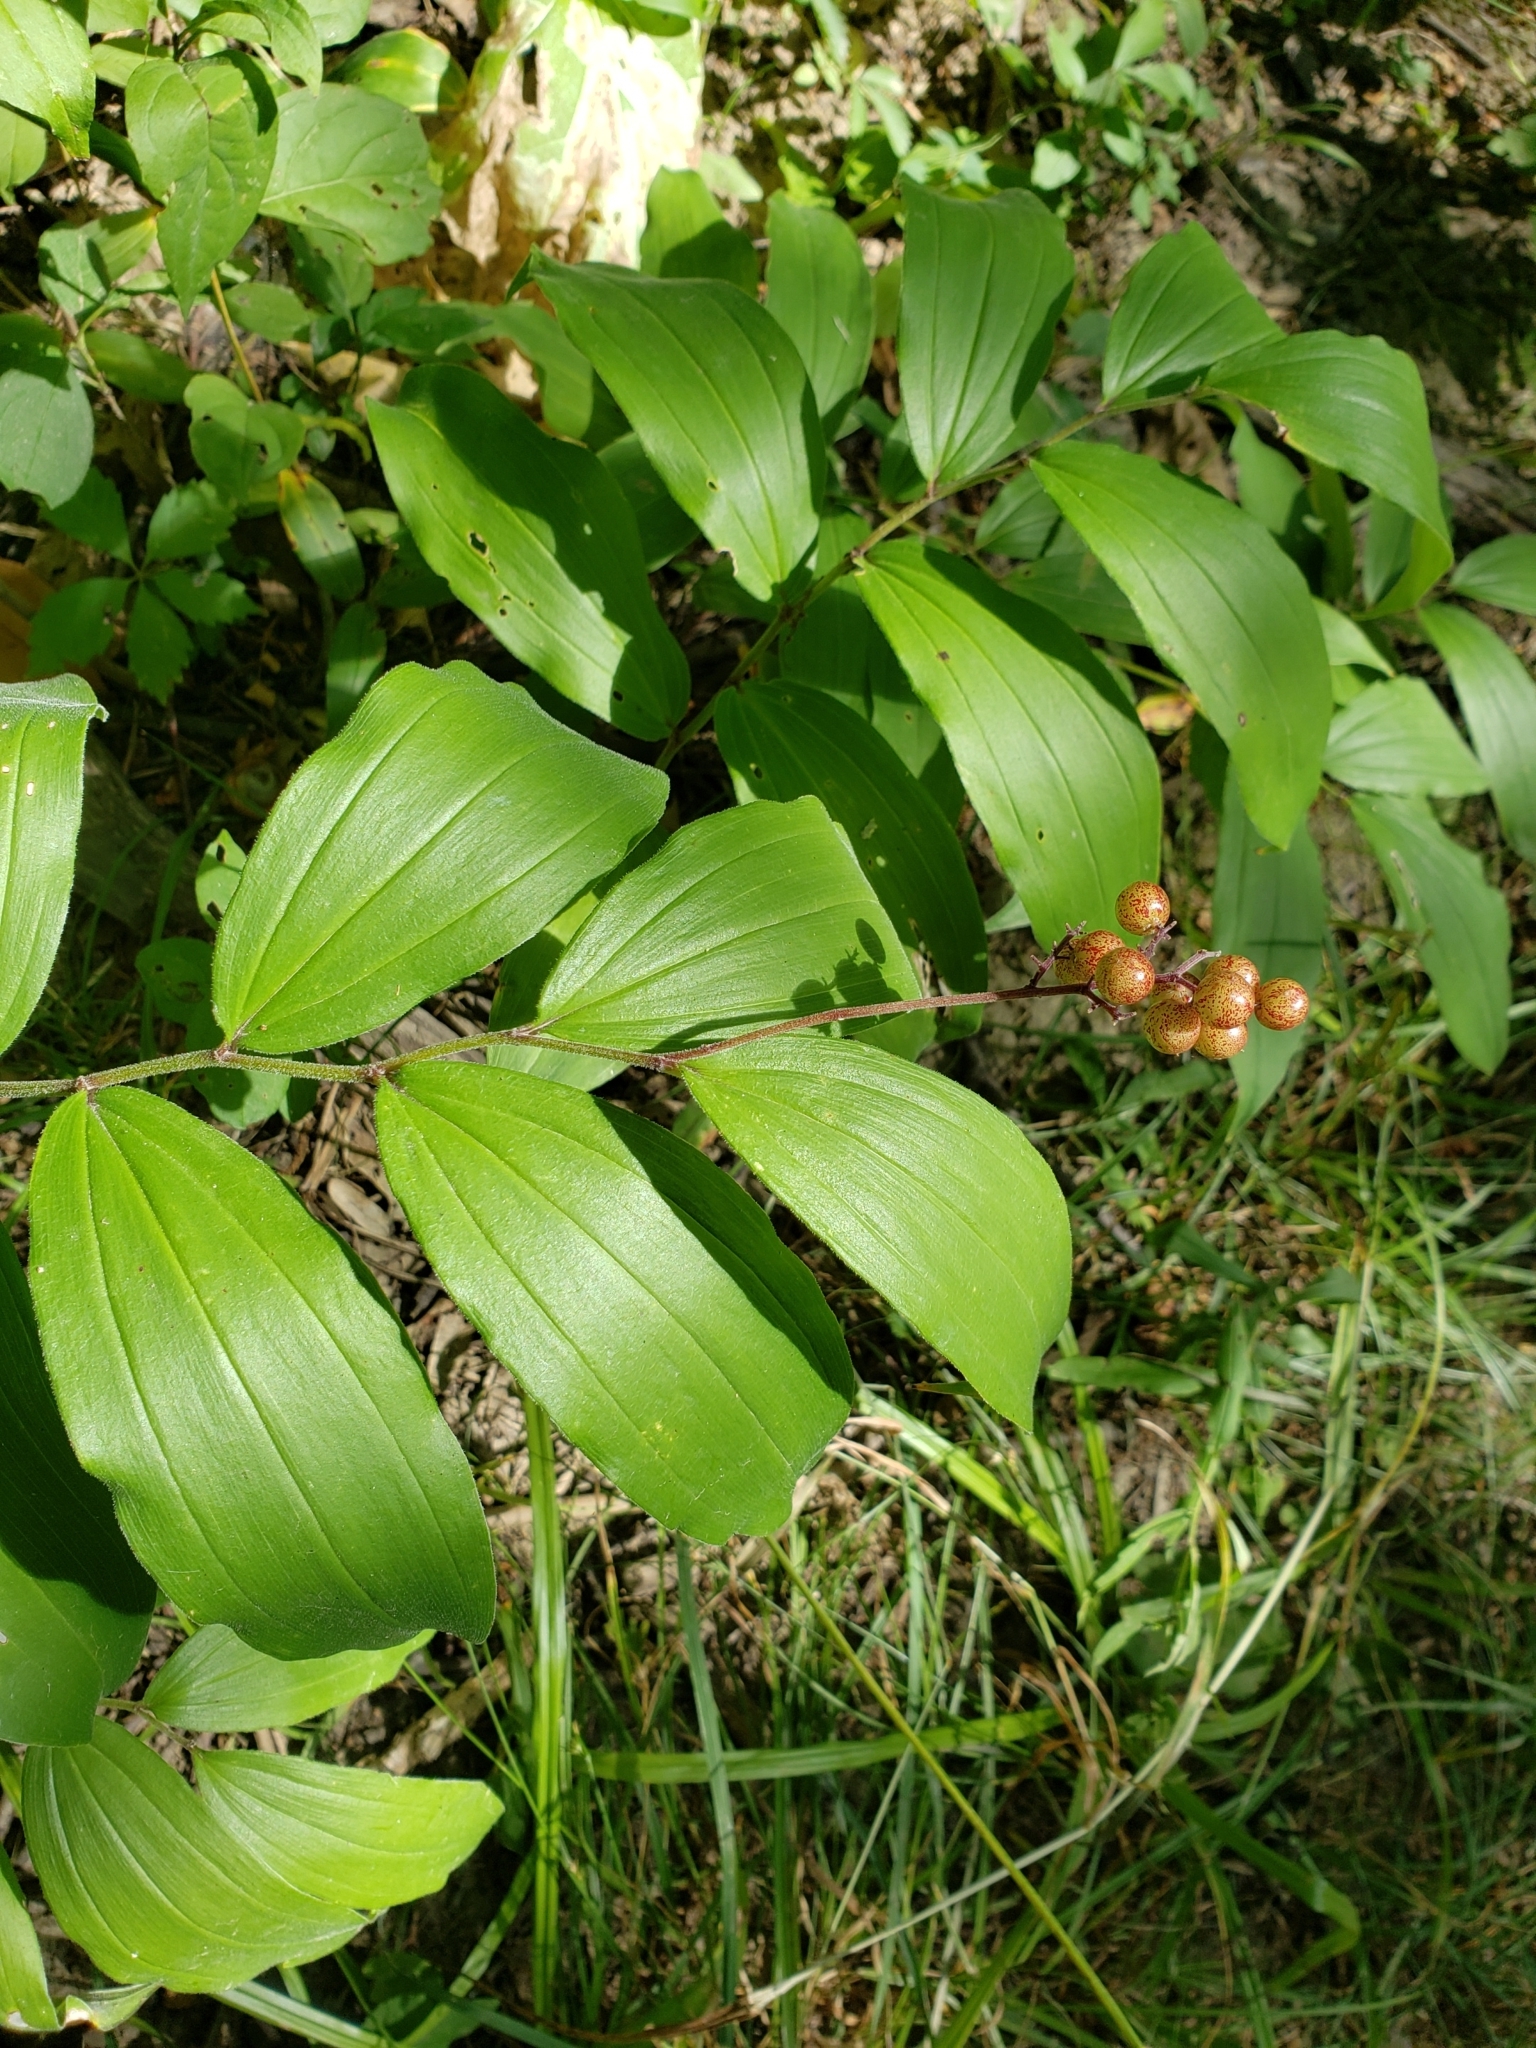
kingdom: Plantae
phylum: Tracheophyta
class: Liliopsida
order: Asparagales
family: Asparagaceae
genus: Maianthemum
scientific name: Maianthemum racemosum
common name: False spikenard
